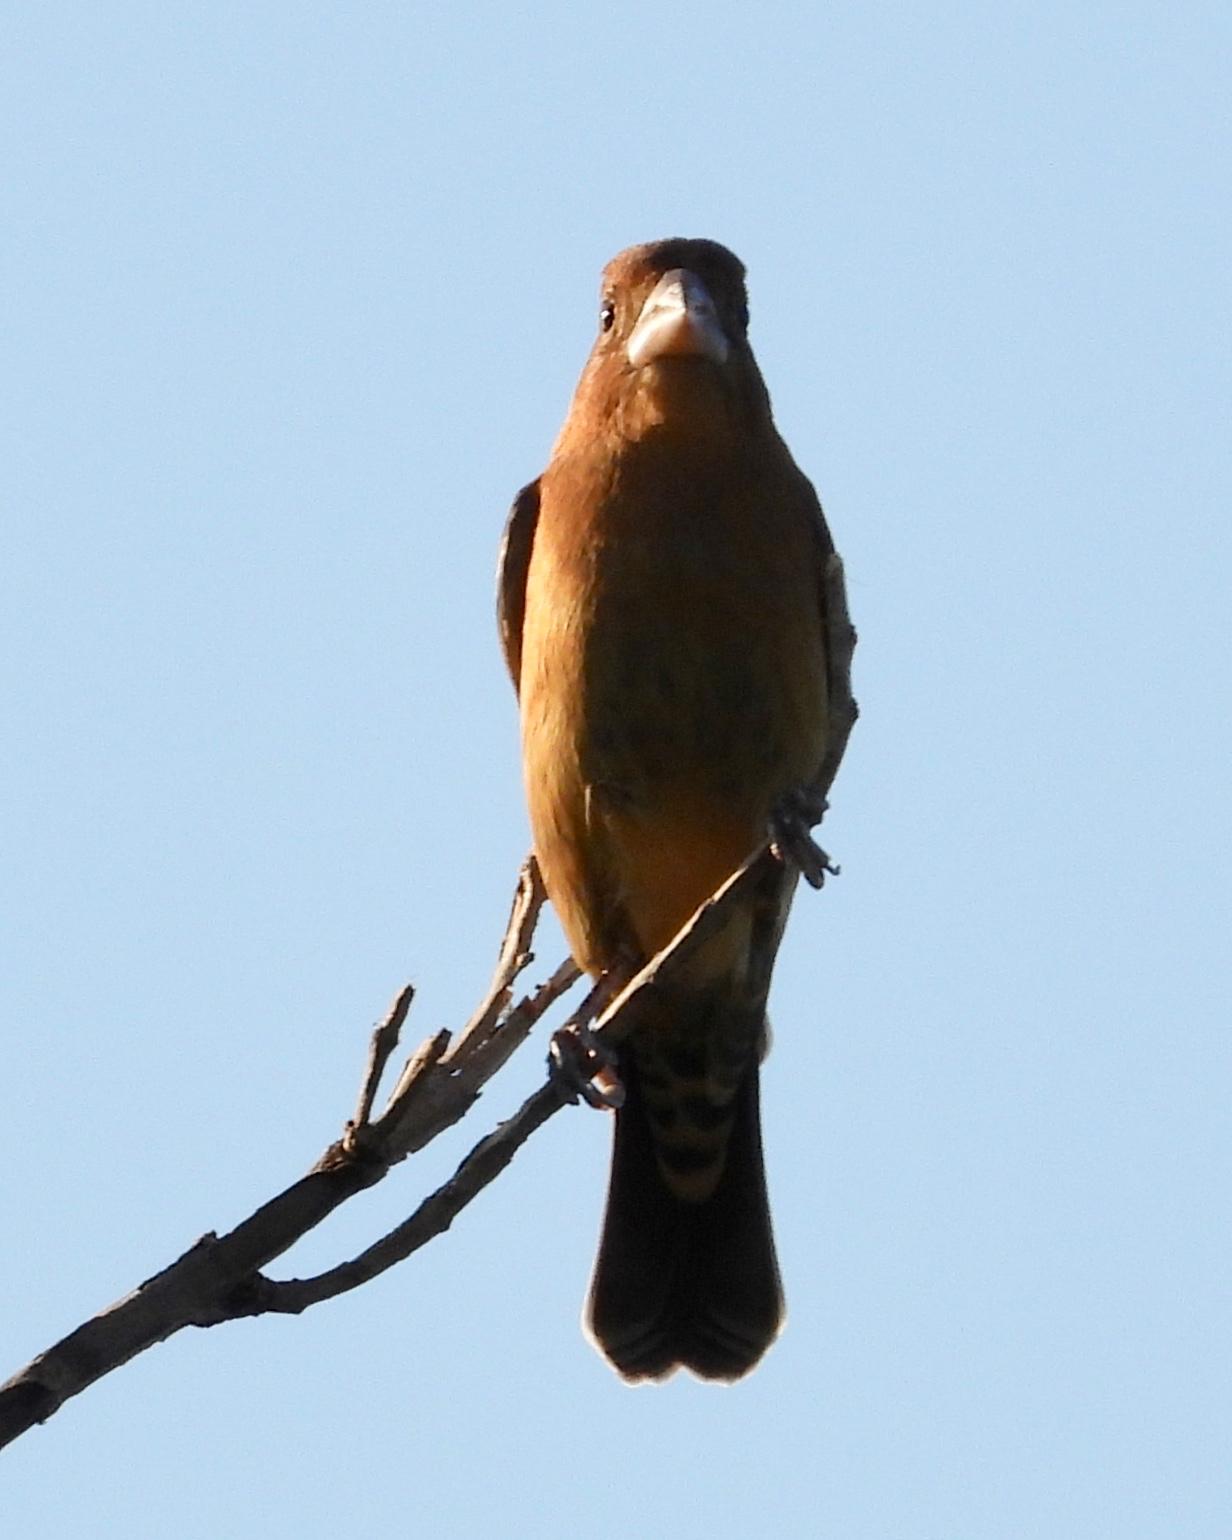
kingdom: Animalia
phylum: Chordata
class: Aves
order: Passeriformes
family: Cardinalidae
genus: Passerina
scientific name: Passerina caerulea
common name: Blue grosbeak
